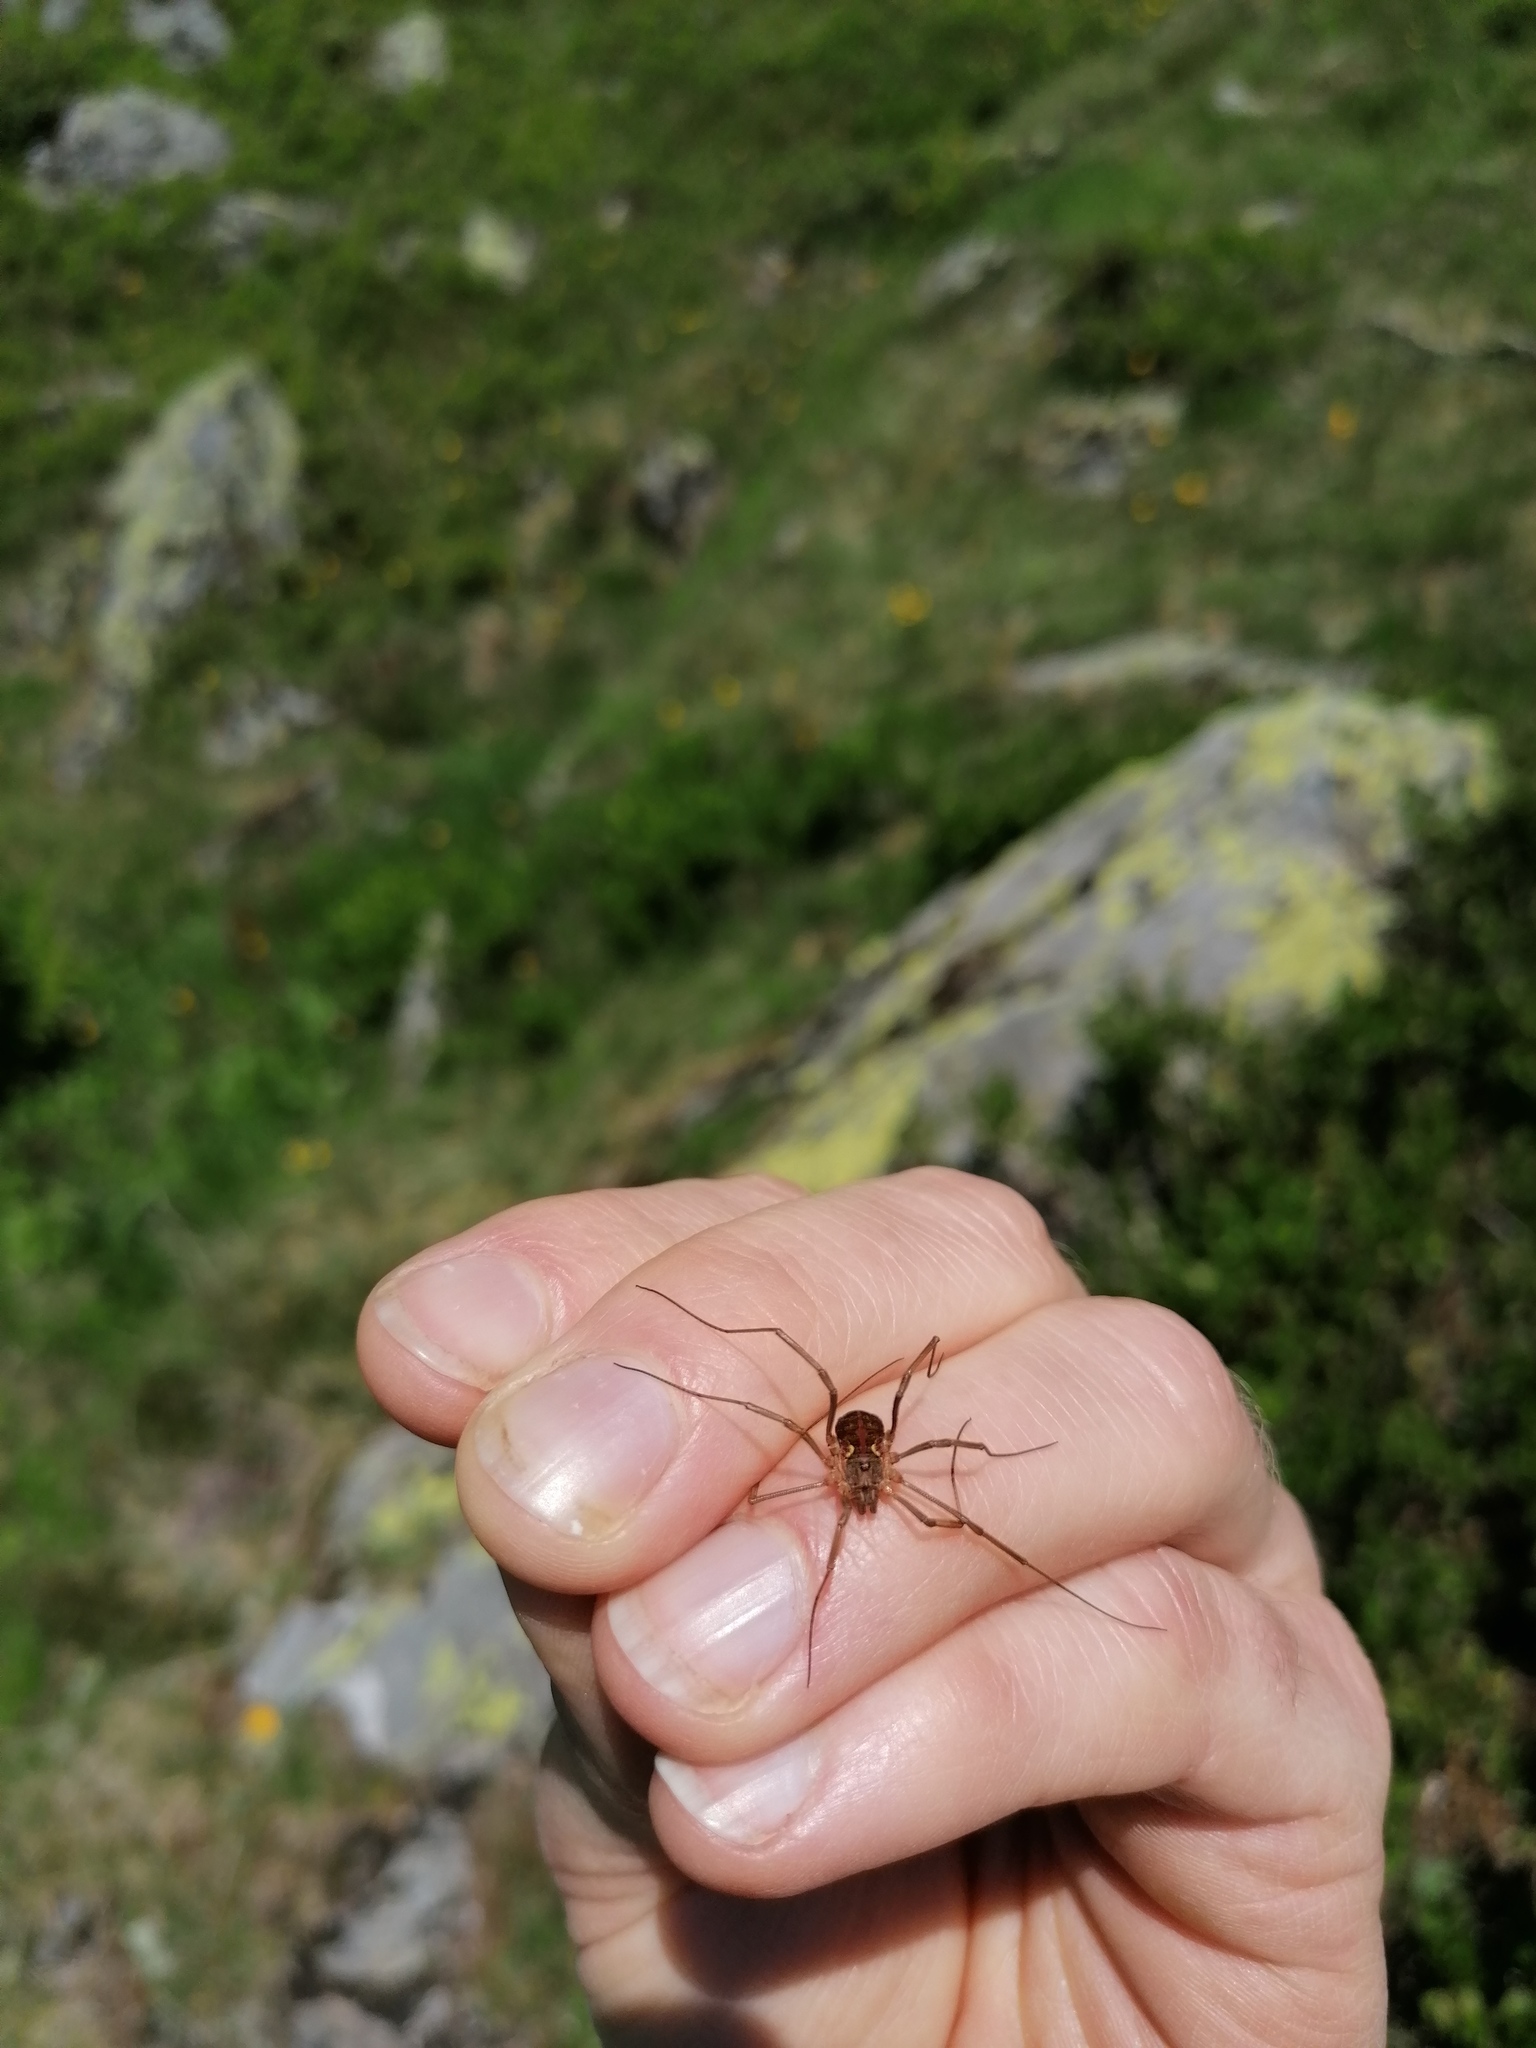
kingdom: Animalia
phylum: Arthropoda
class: Arachnida
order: Opiliones
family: Phalangiidae
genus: Mitopus
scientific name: Mitopus morio
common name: Saddleback harvestman
